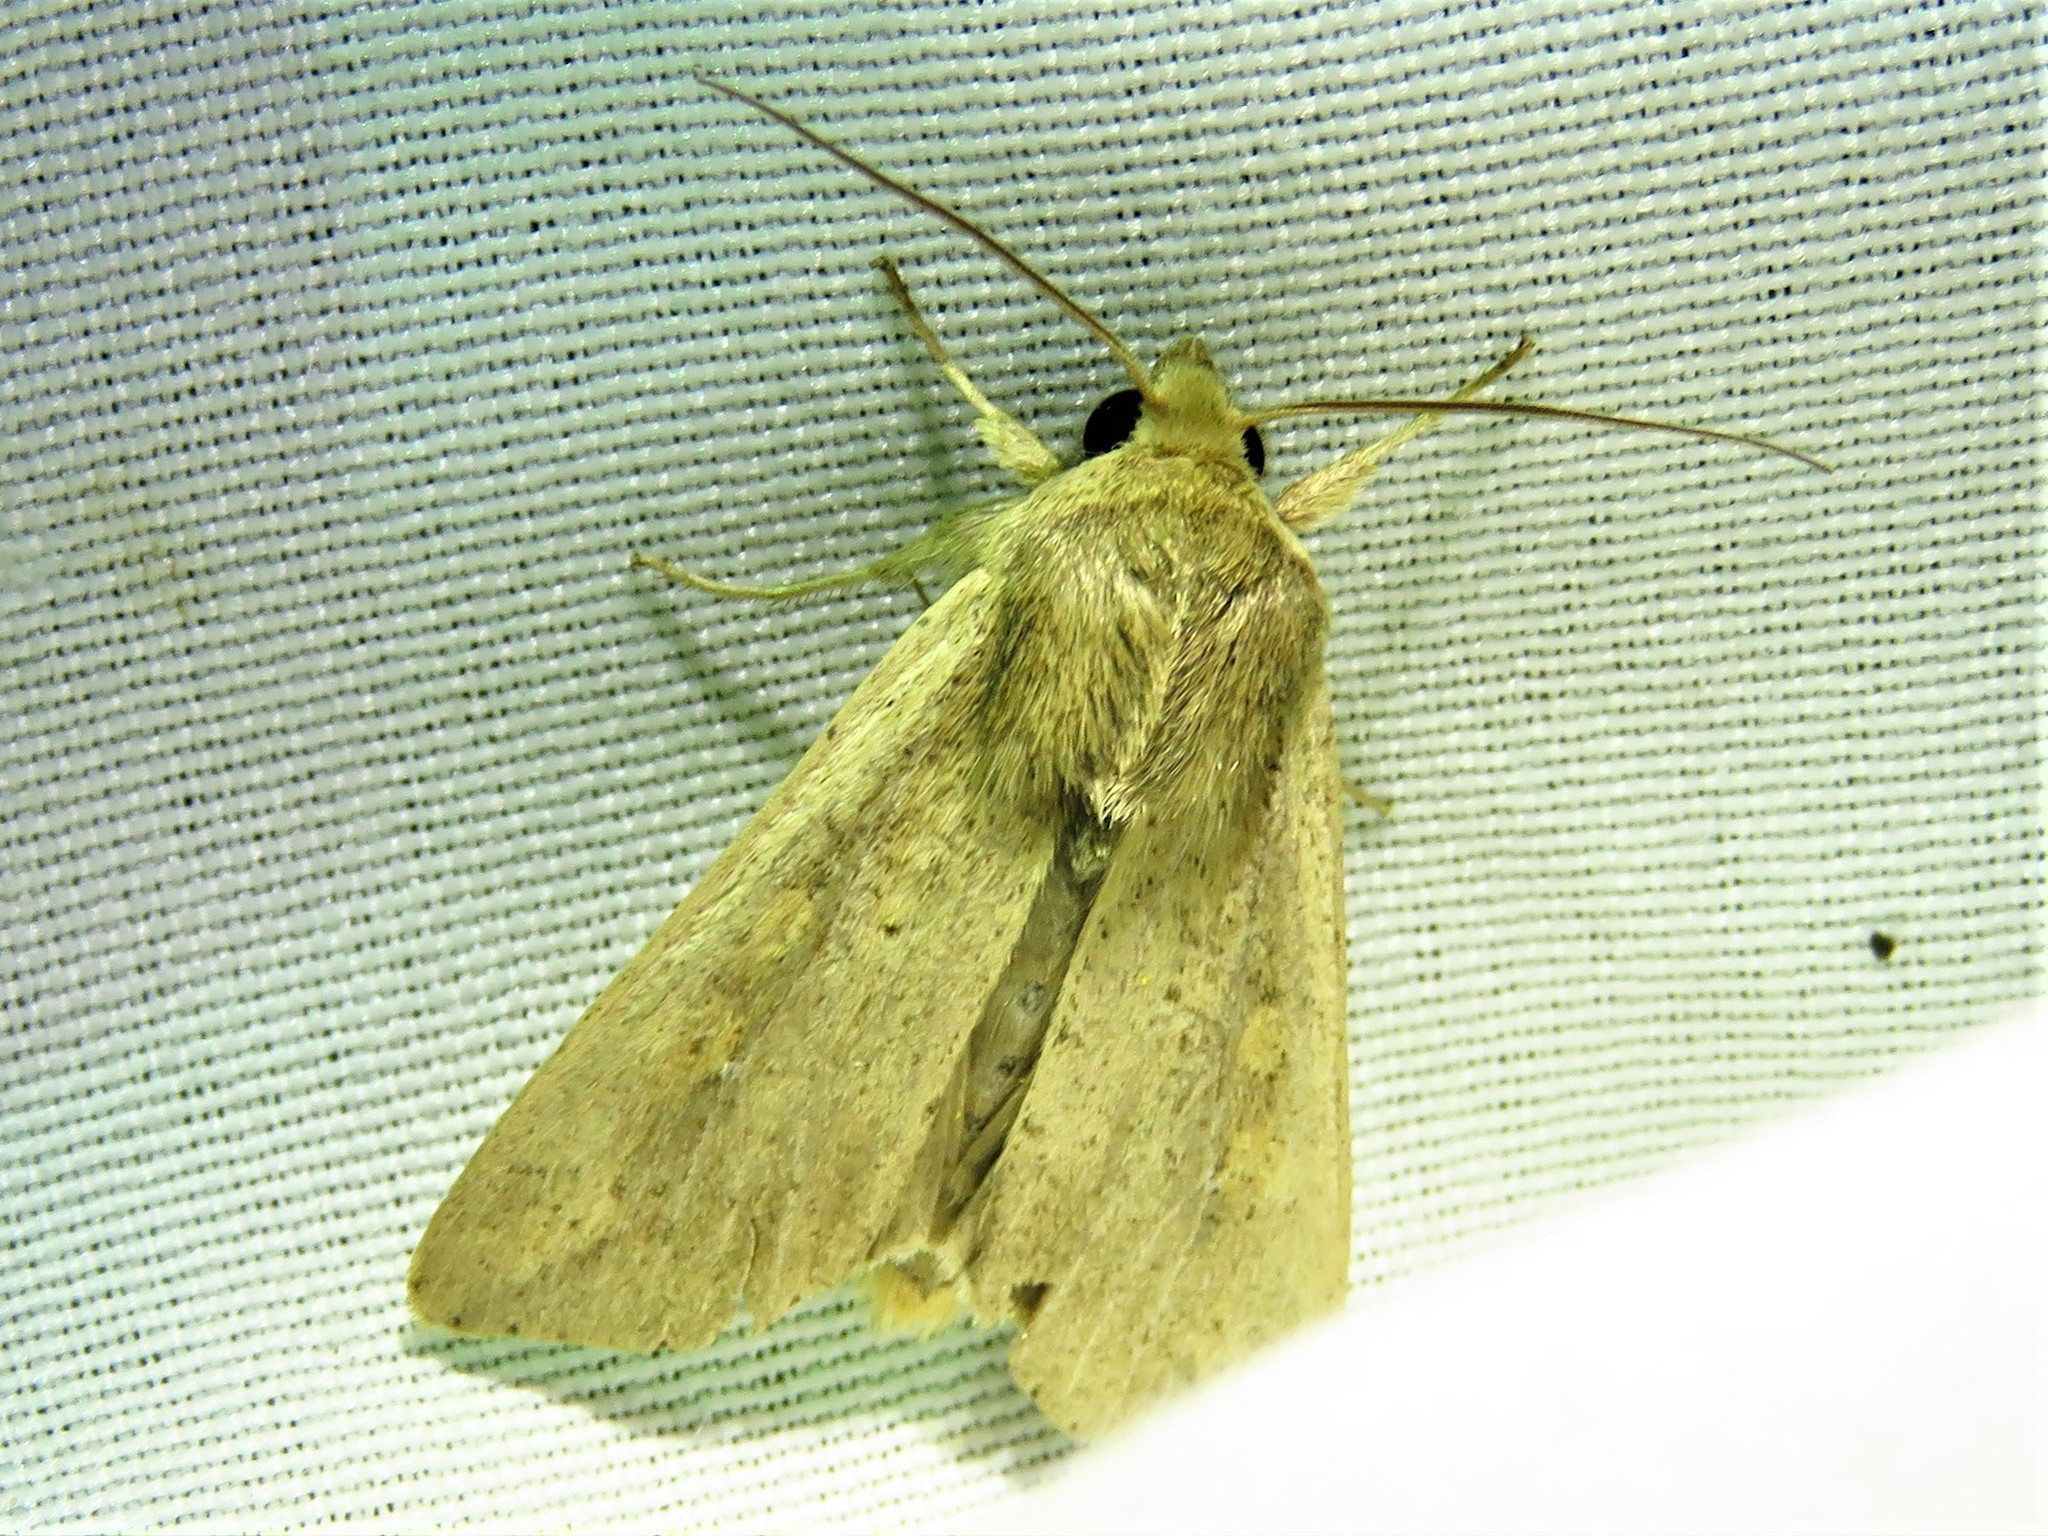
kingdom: Animalia
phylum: Arthropoda
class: Insecta
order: Lepidoptera
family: Noctuidae
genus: Mythimna
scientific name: Mythimna unipuncta
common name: White-speck
